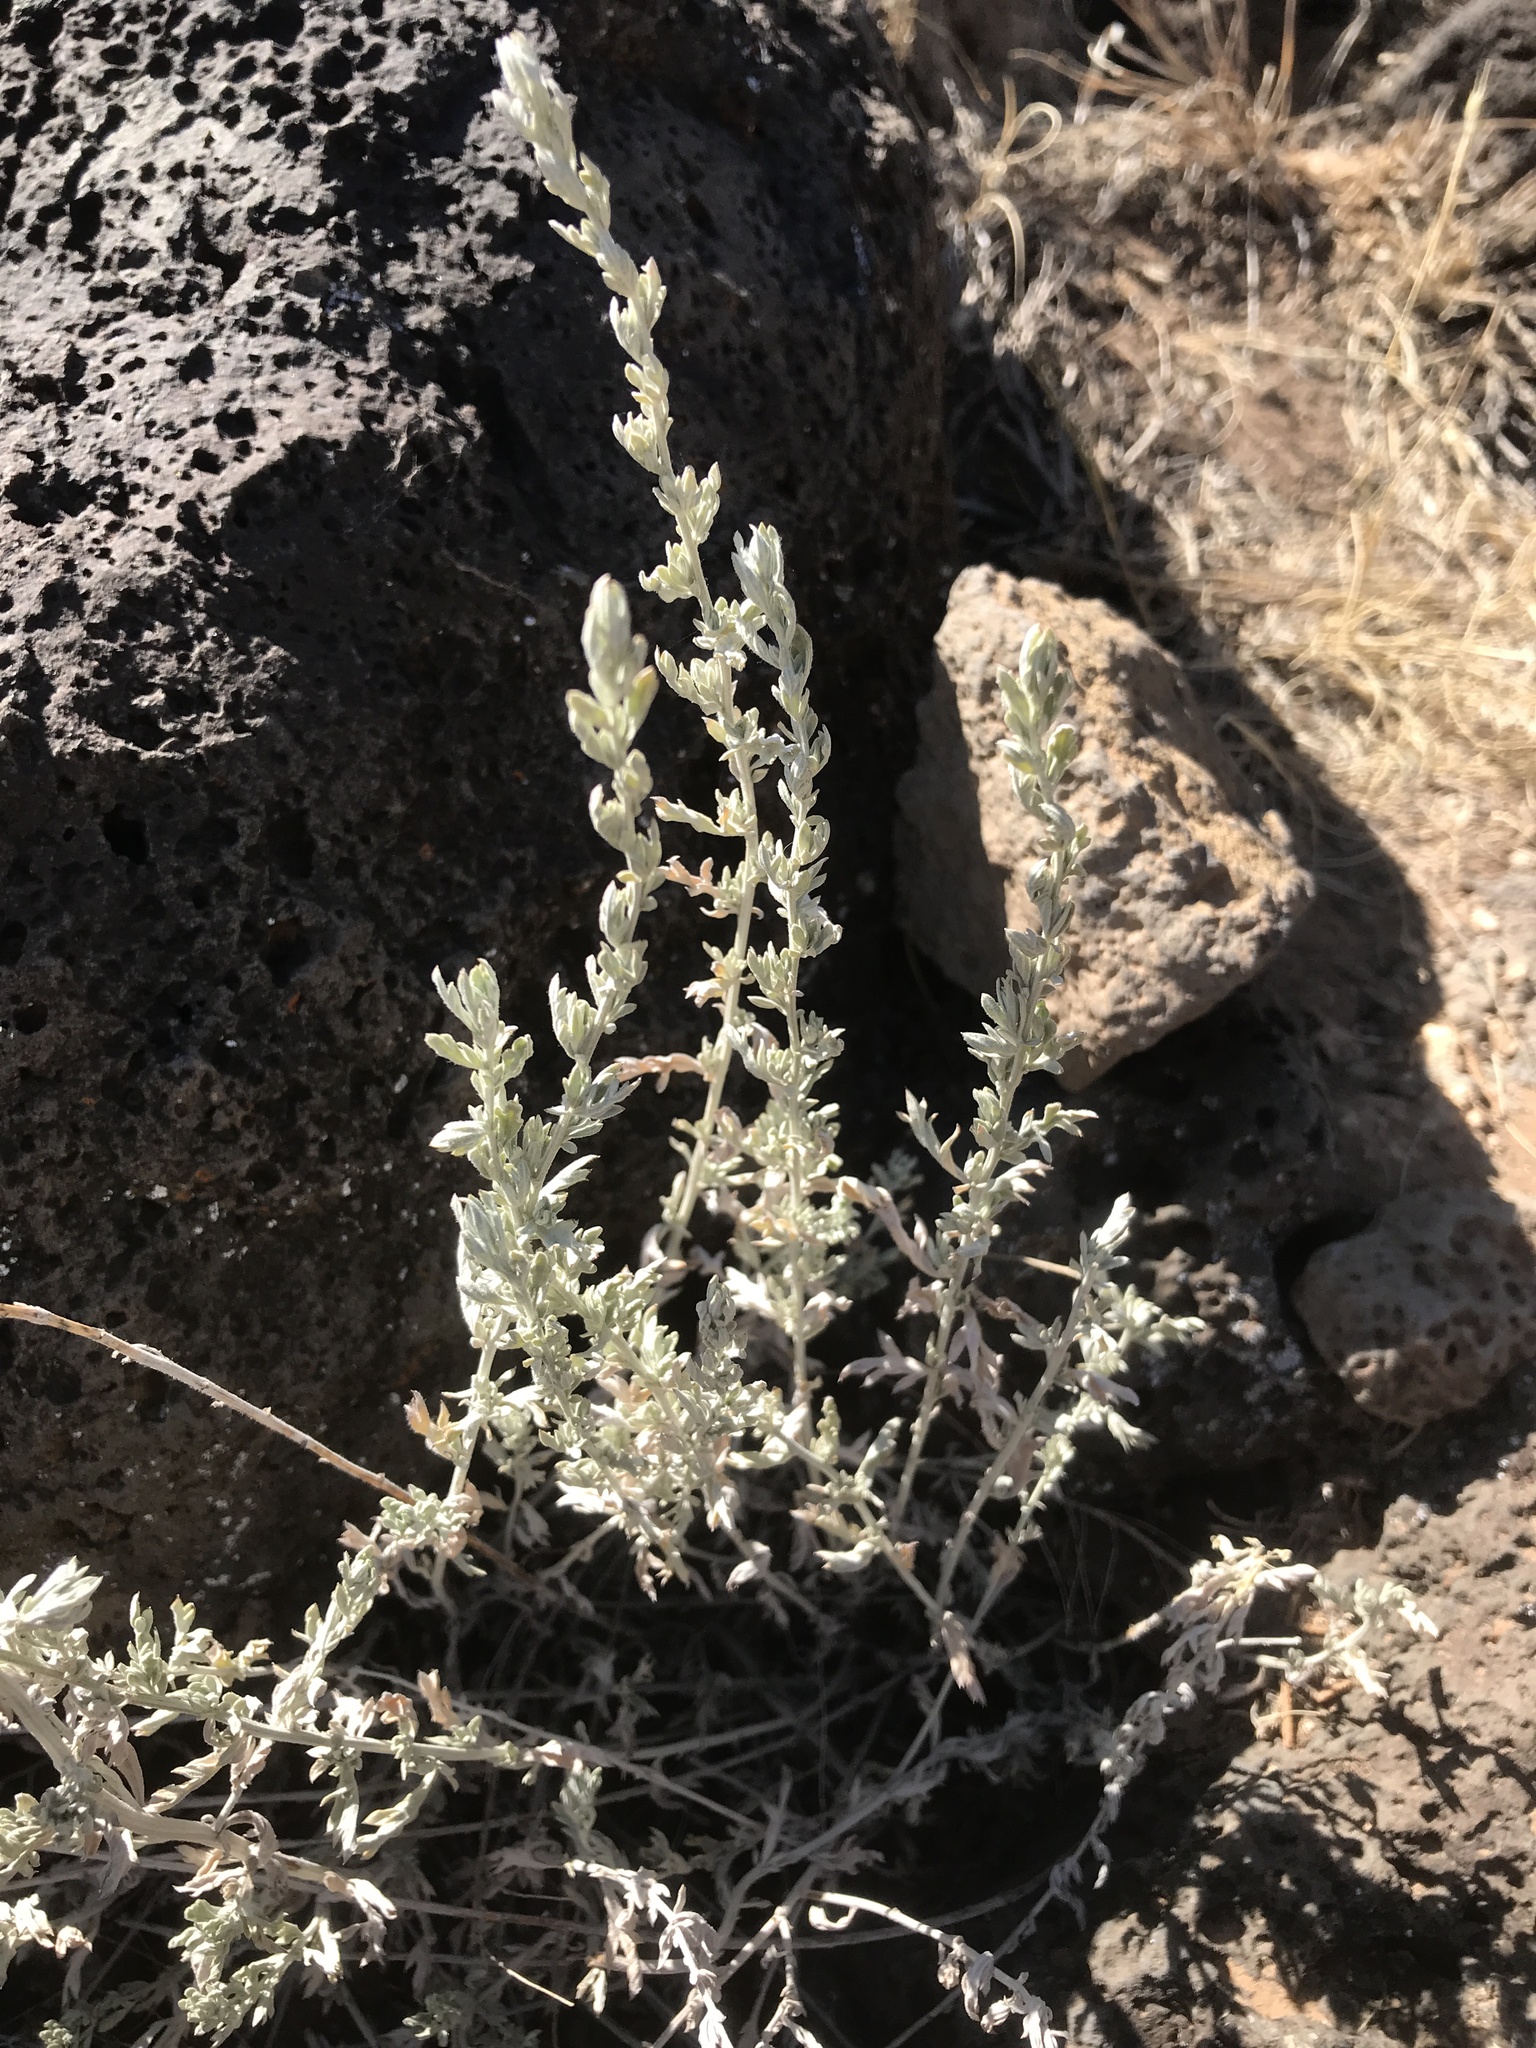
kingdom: Plantae
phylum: Tracheophyta
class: Magnoliopsida
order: Asterales
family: Asteraceae
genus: Artemisia
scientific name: Artemisia frigida
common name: Prairie sagewort
